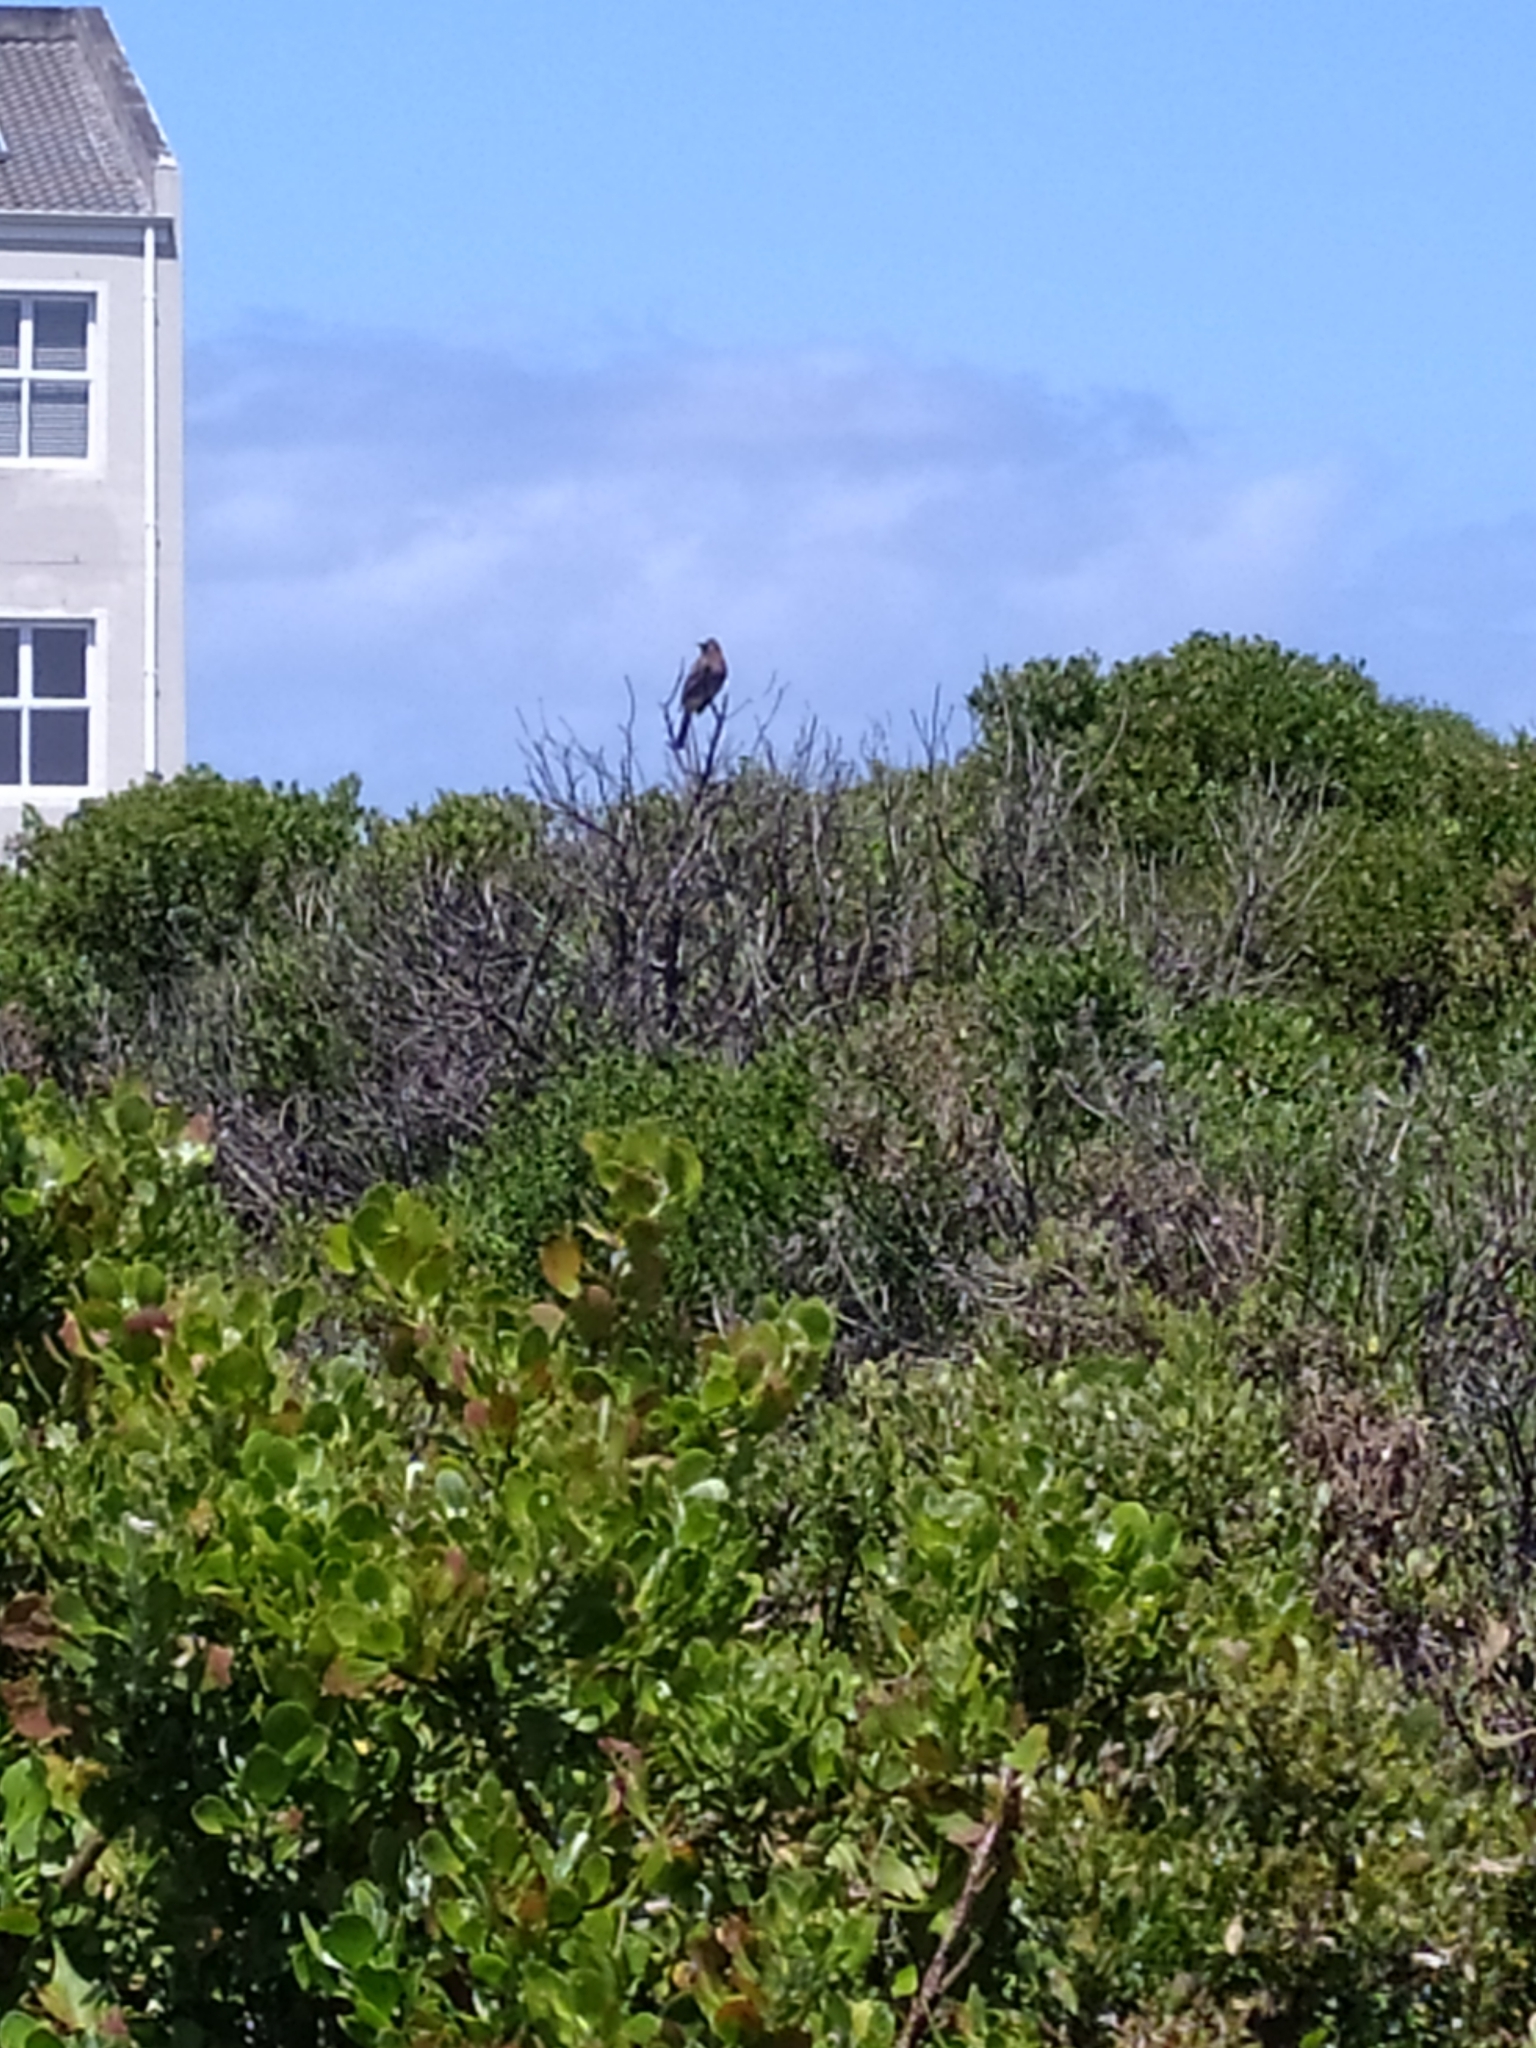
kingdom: Animalia
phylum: Chordata
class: Aves
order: Passeriformes
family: Pycnonotidae
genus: Pycnonotus
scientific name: Pycnonotus capensis
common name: Cape bulbul
